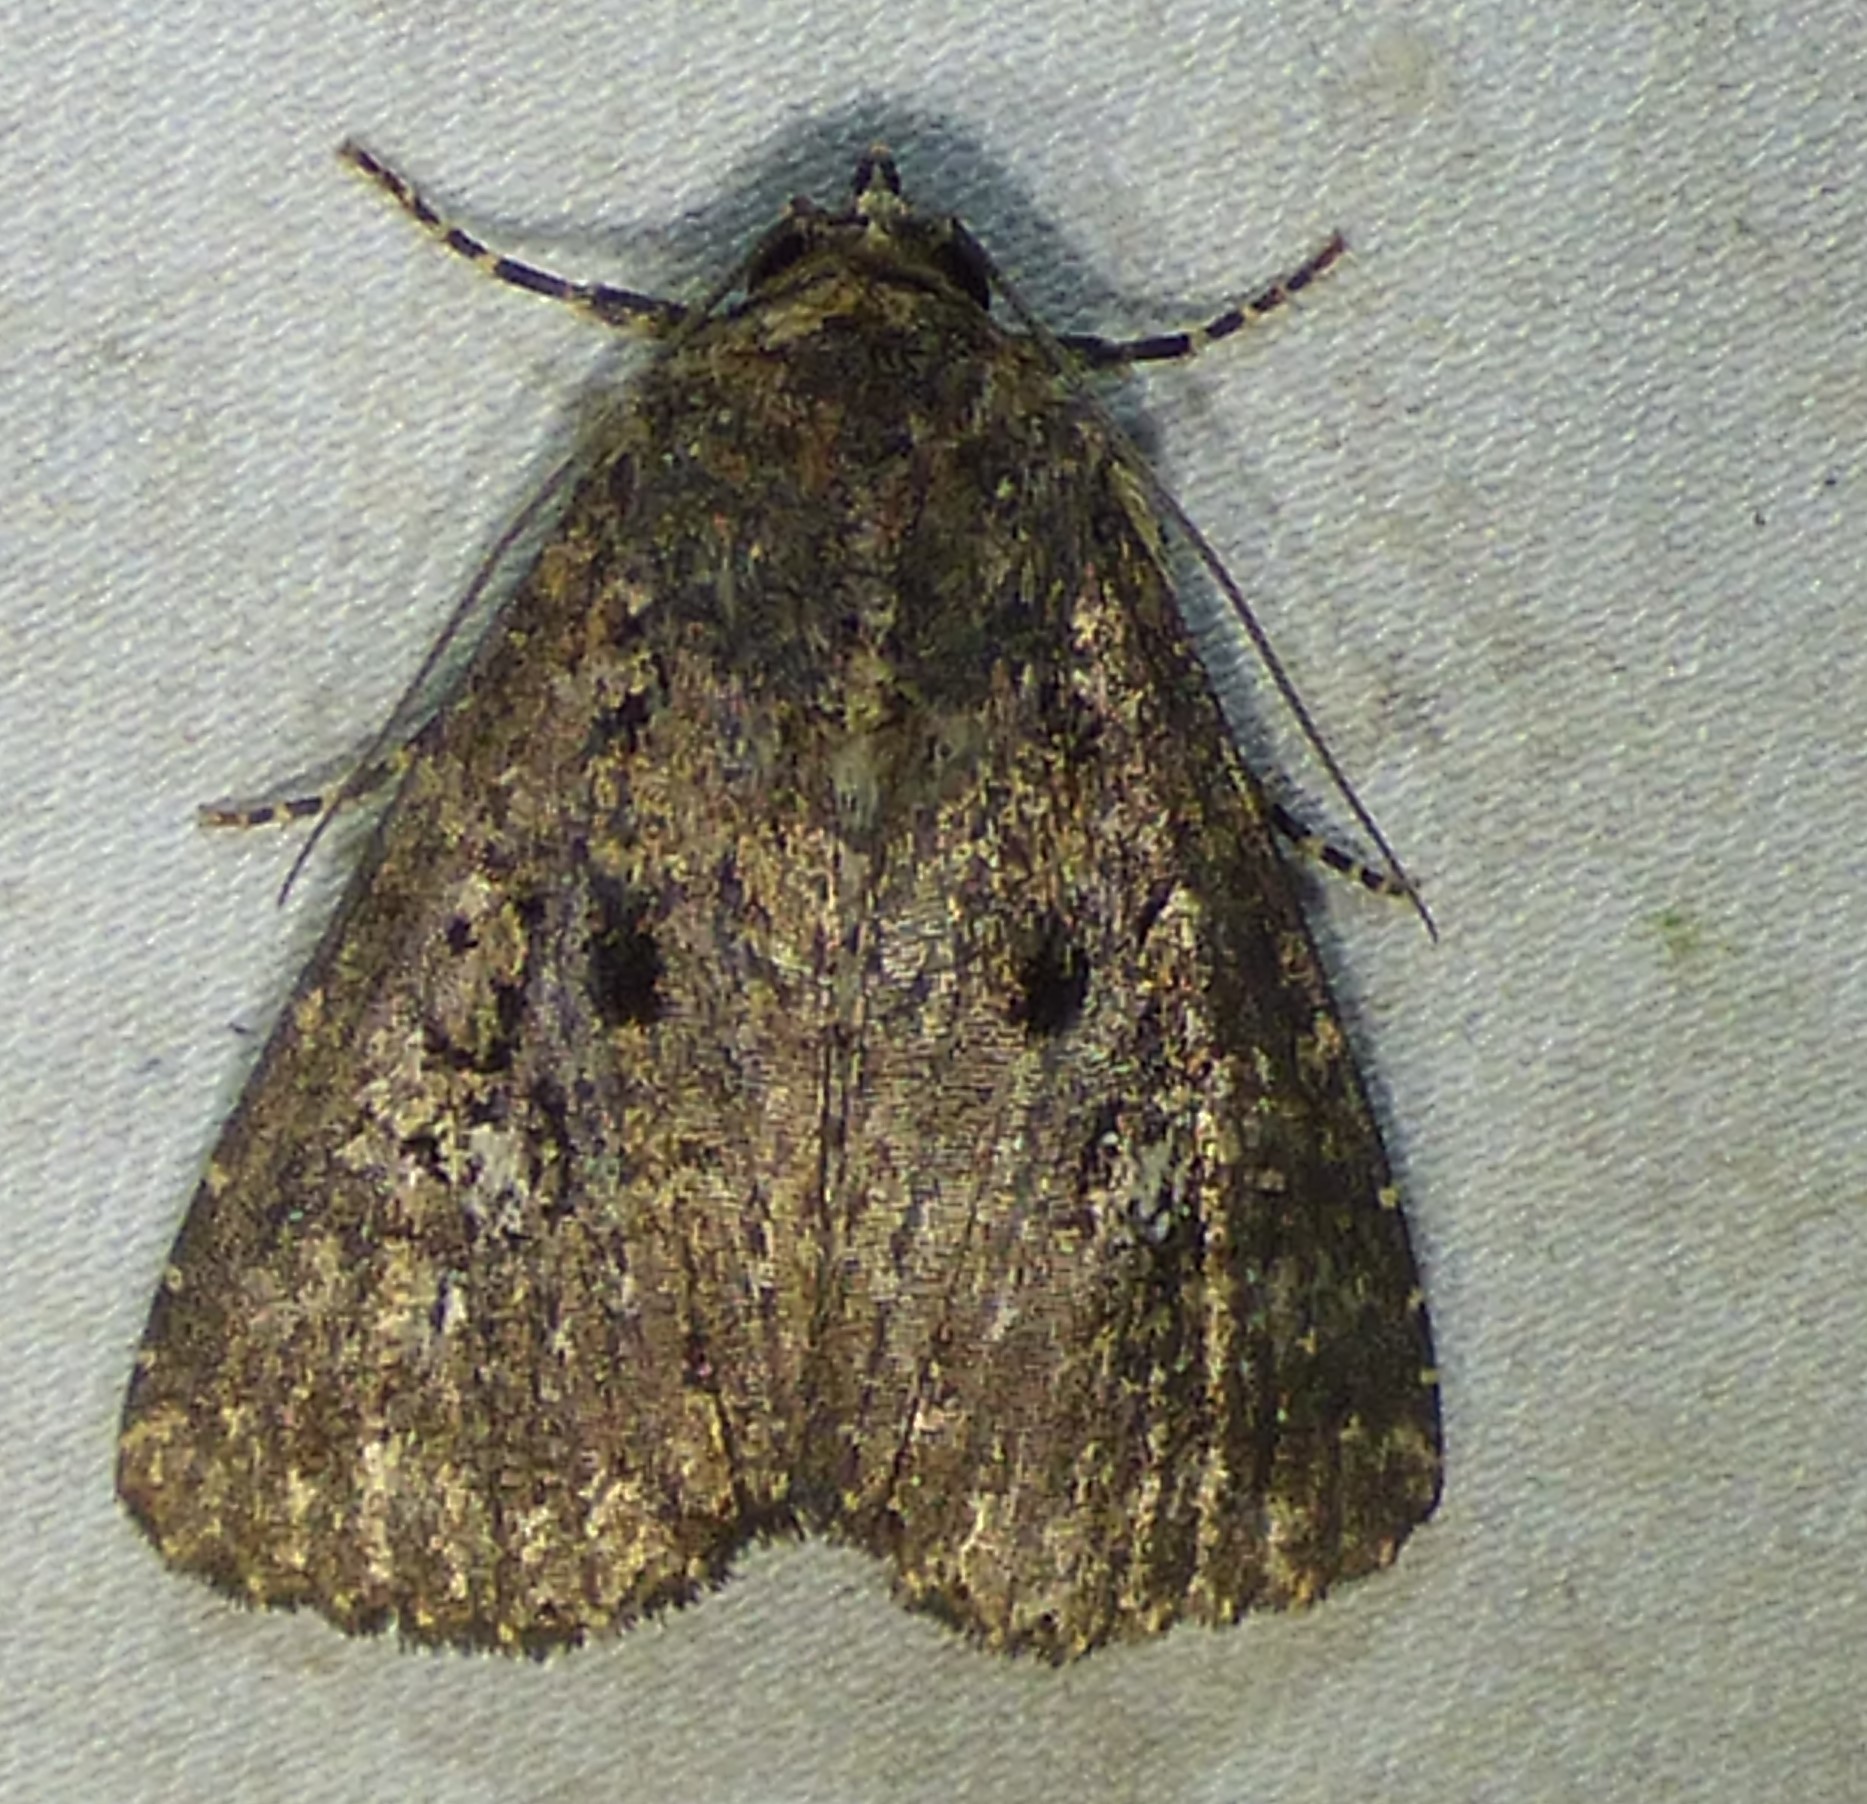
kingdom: Animalia
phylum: Arthropoda
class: Insecta
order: Lepidoptera
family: Noctuidae
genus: Condica
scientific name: Condica vecors
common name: Dusky groundling
